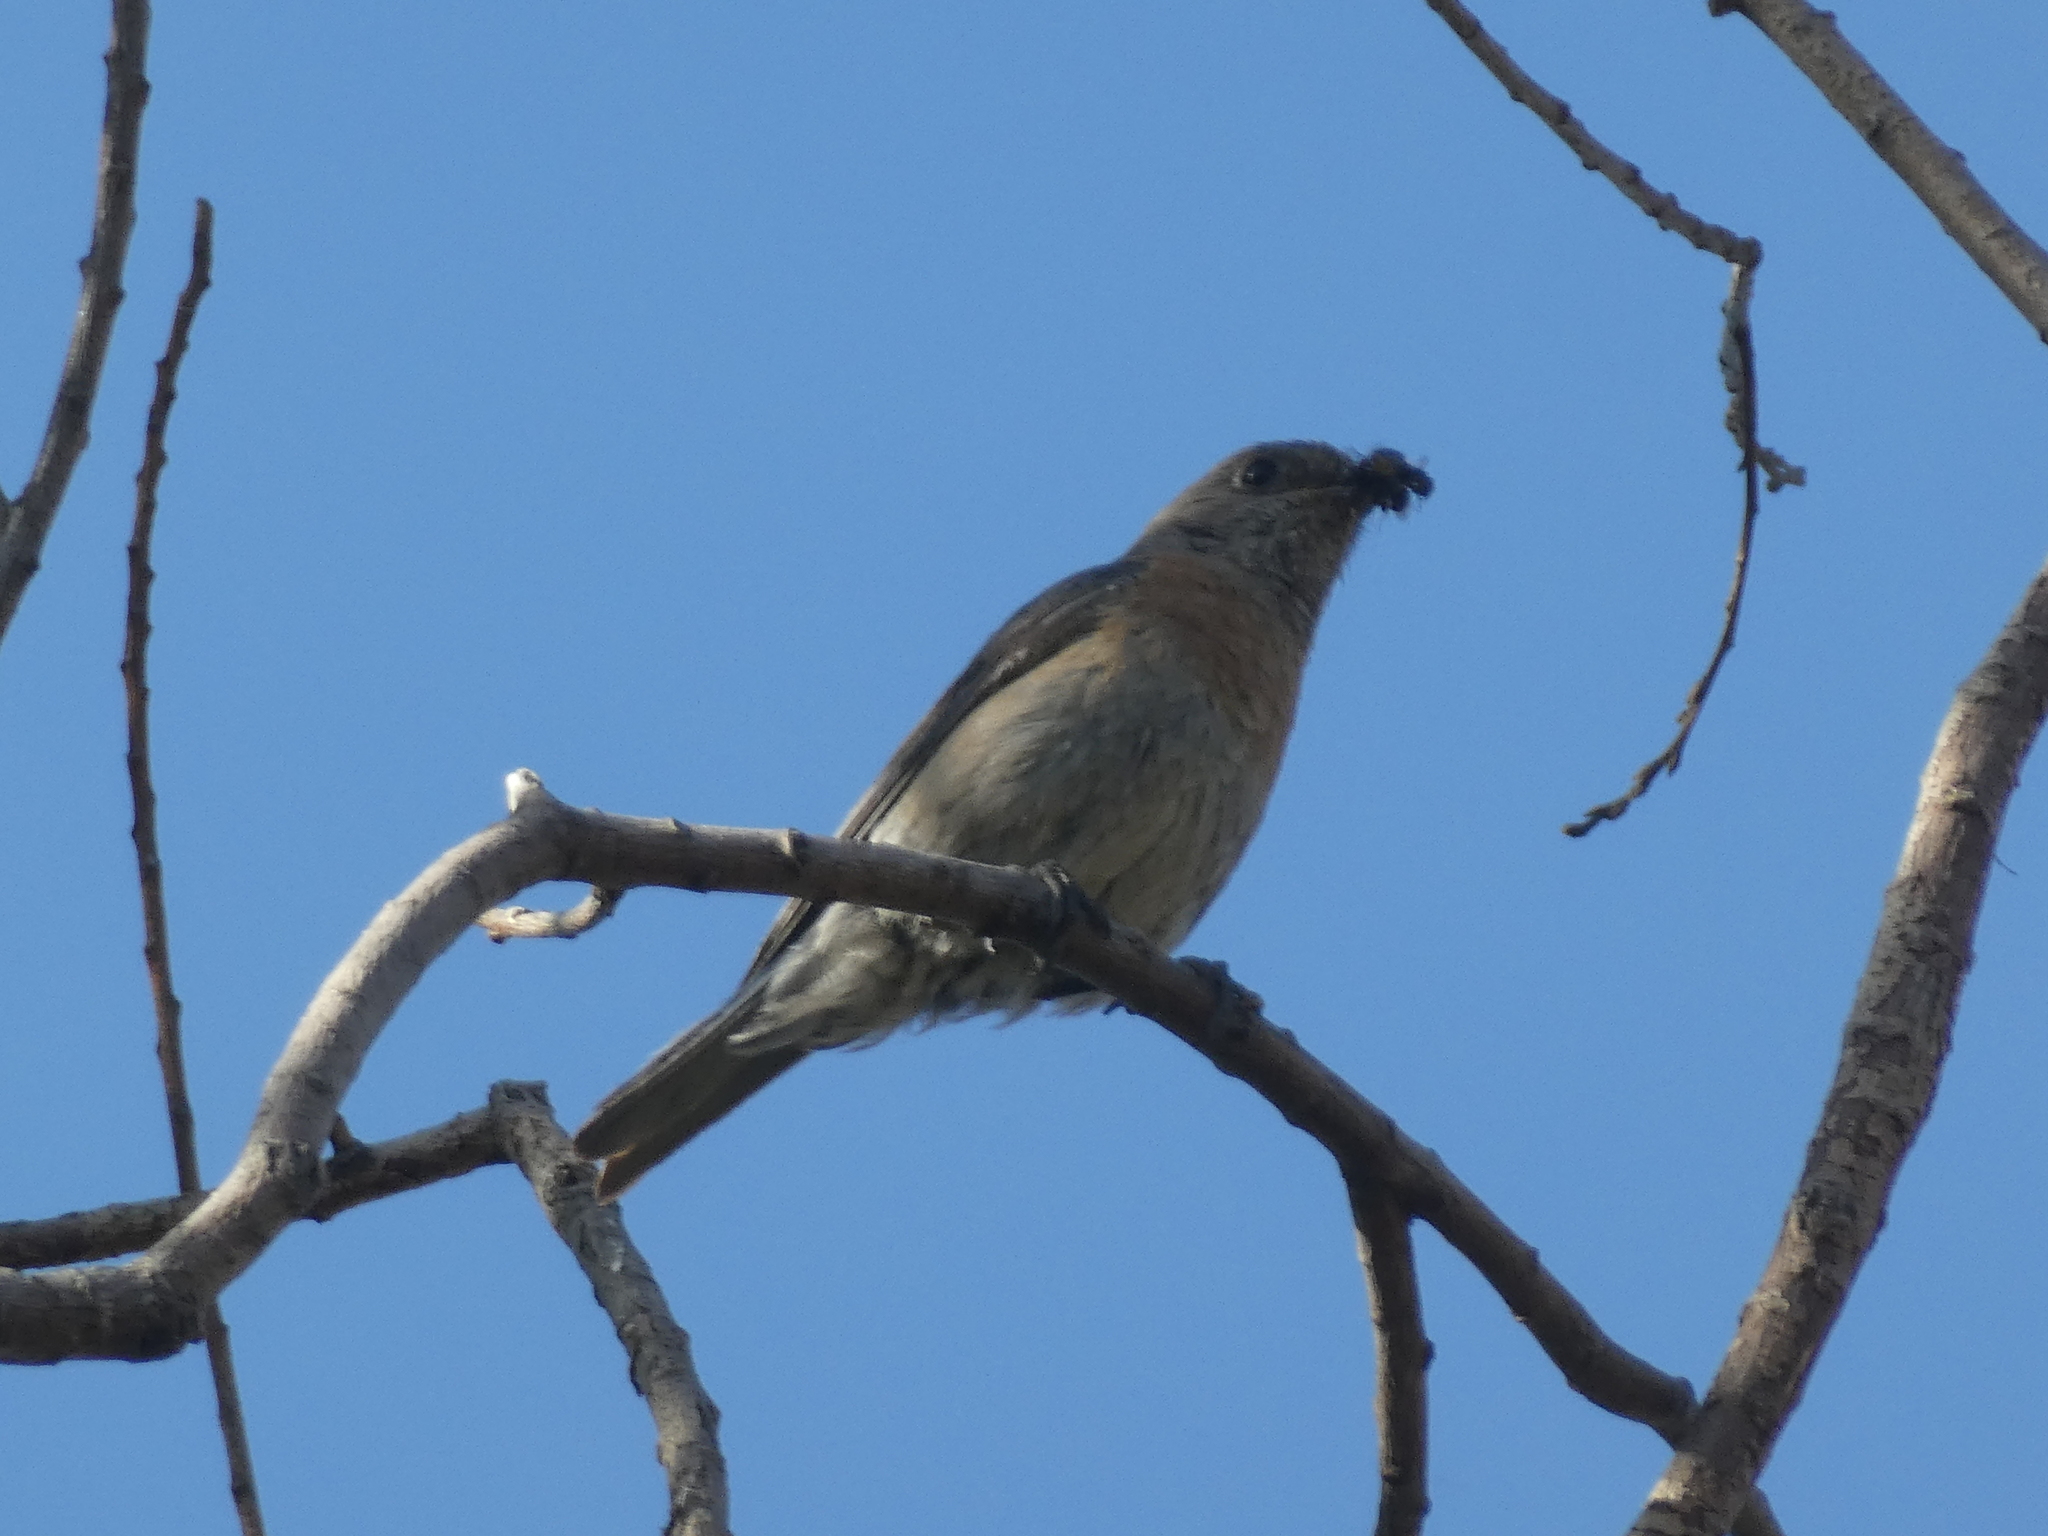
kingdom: Animalia
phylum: Chordata
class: Aves
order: Passeriformes
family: Turdidae
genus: Sialia
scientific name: Sialia mexicana
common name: Western bluebird
